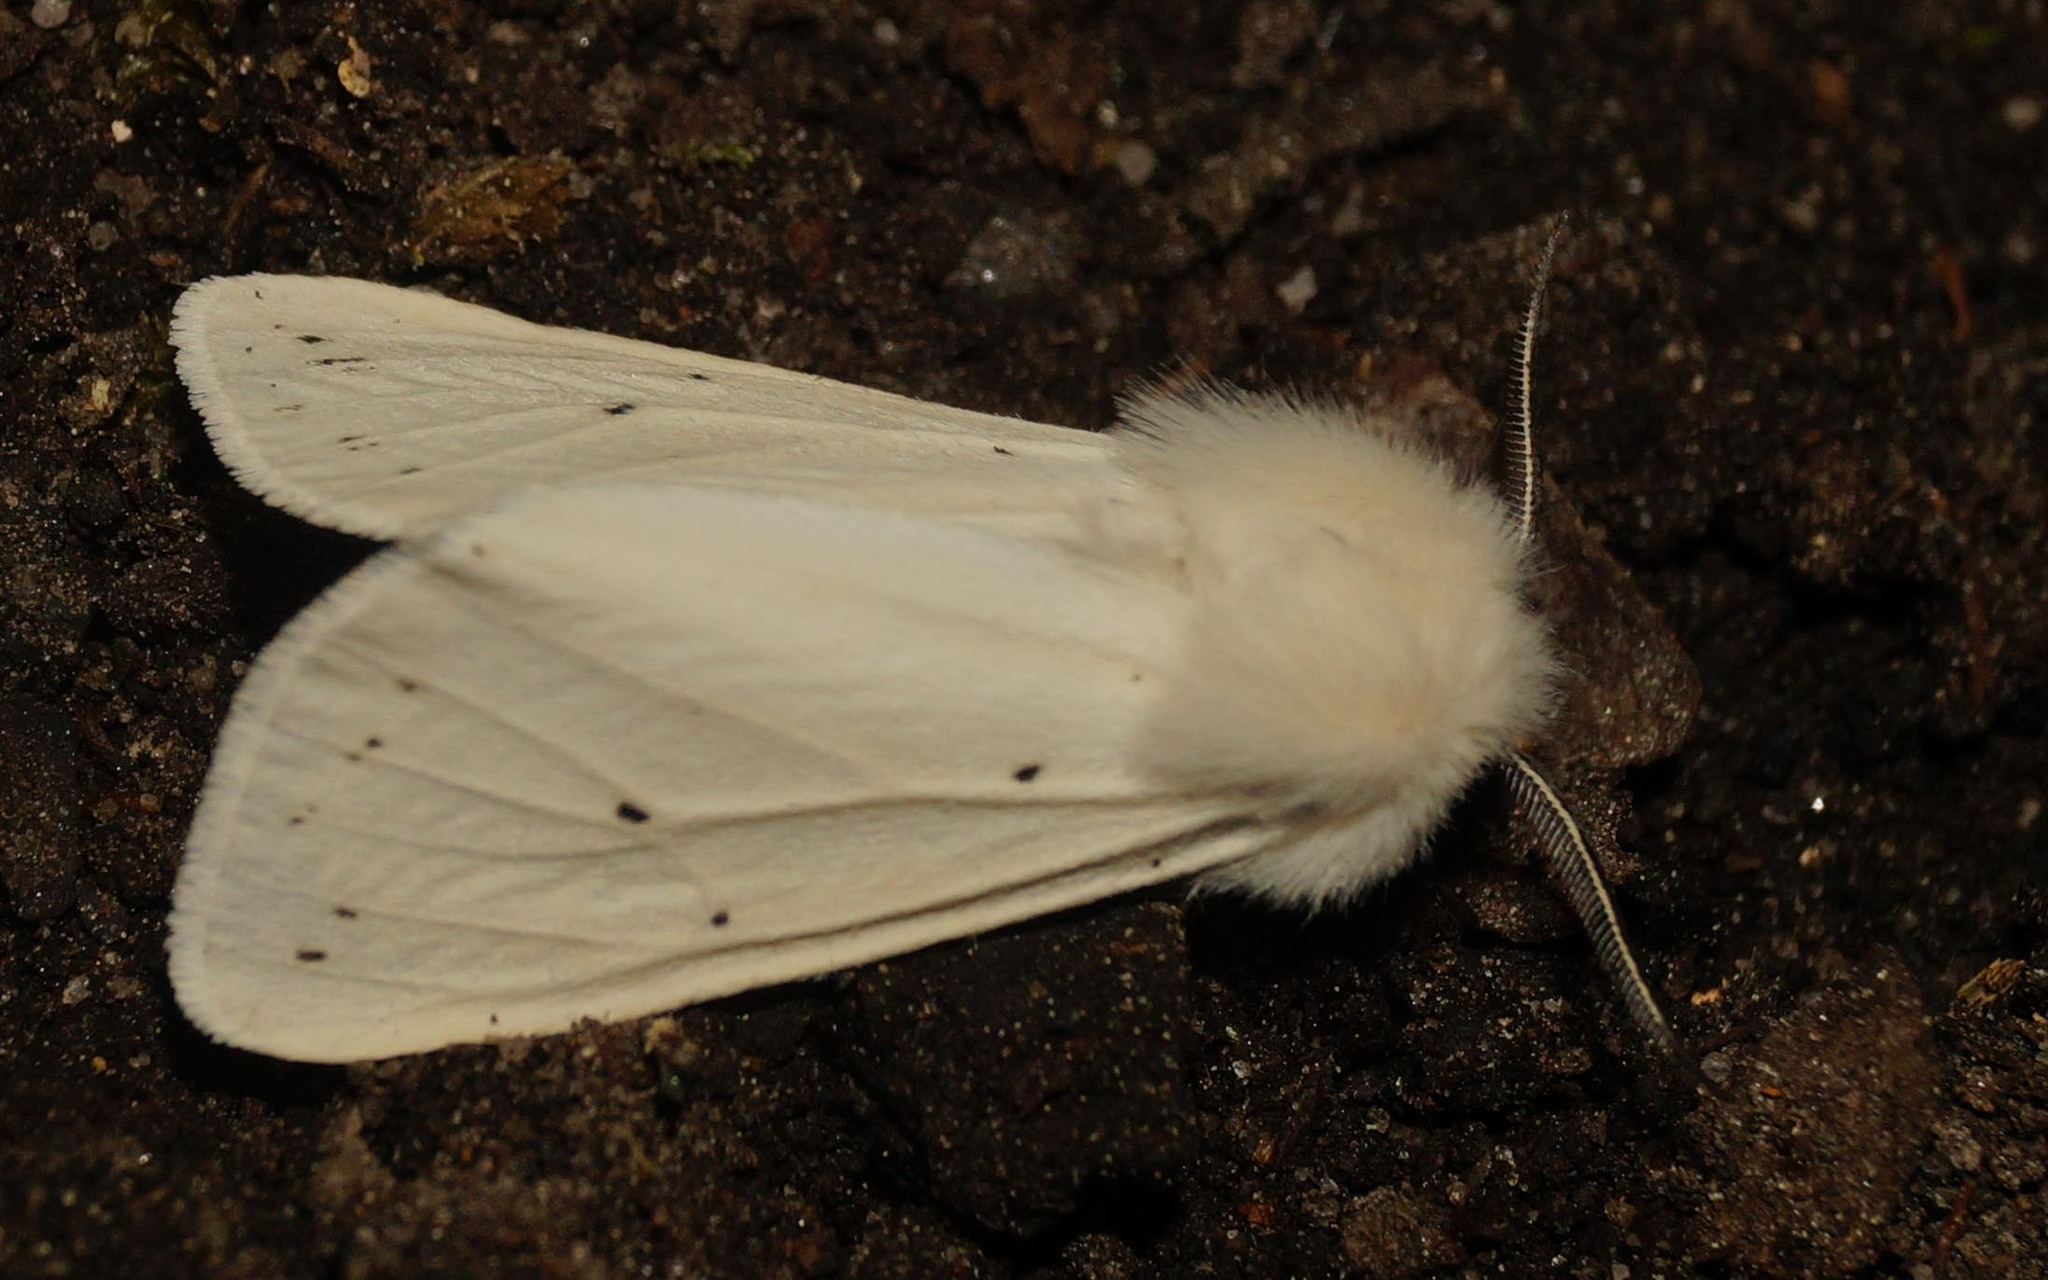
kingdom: Animalia
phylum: Arthropoda
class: Insecta
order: Lepidoptera
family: Erebidae
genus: Spilosoma
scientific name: Spilosoma urticae
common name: Water ermine
